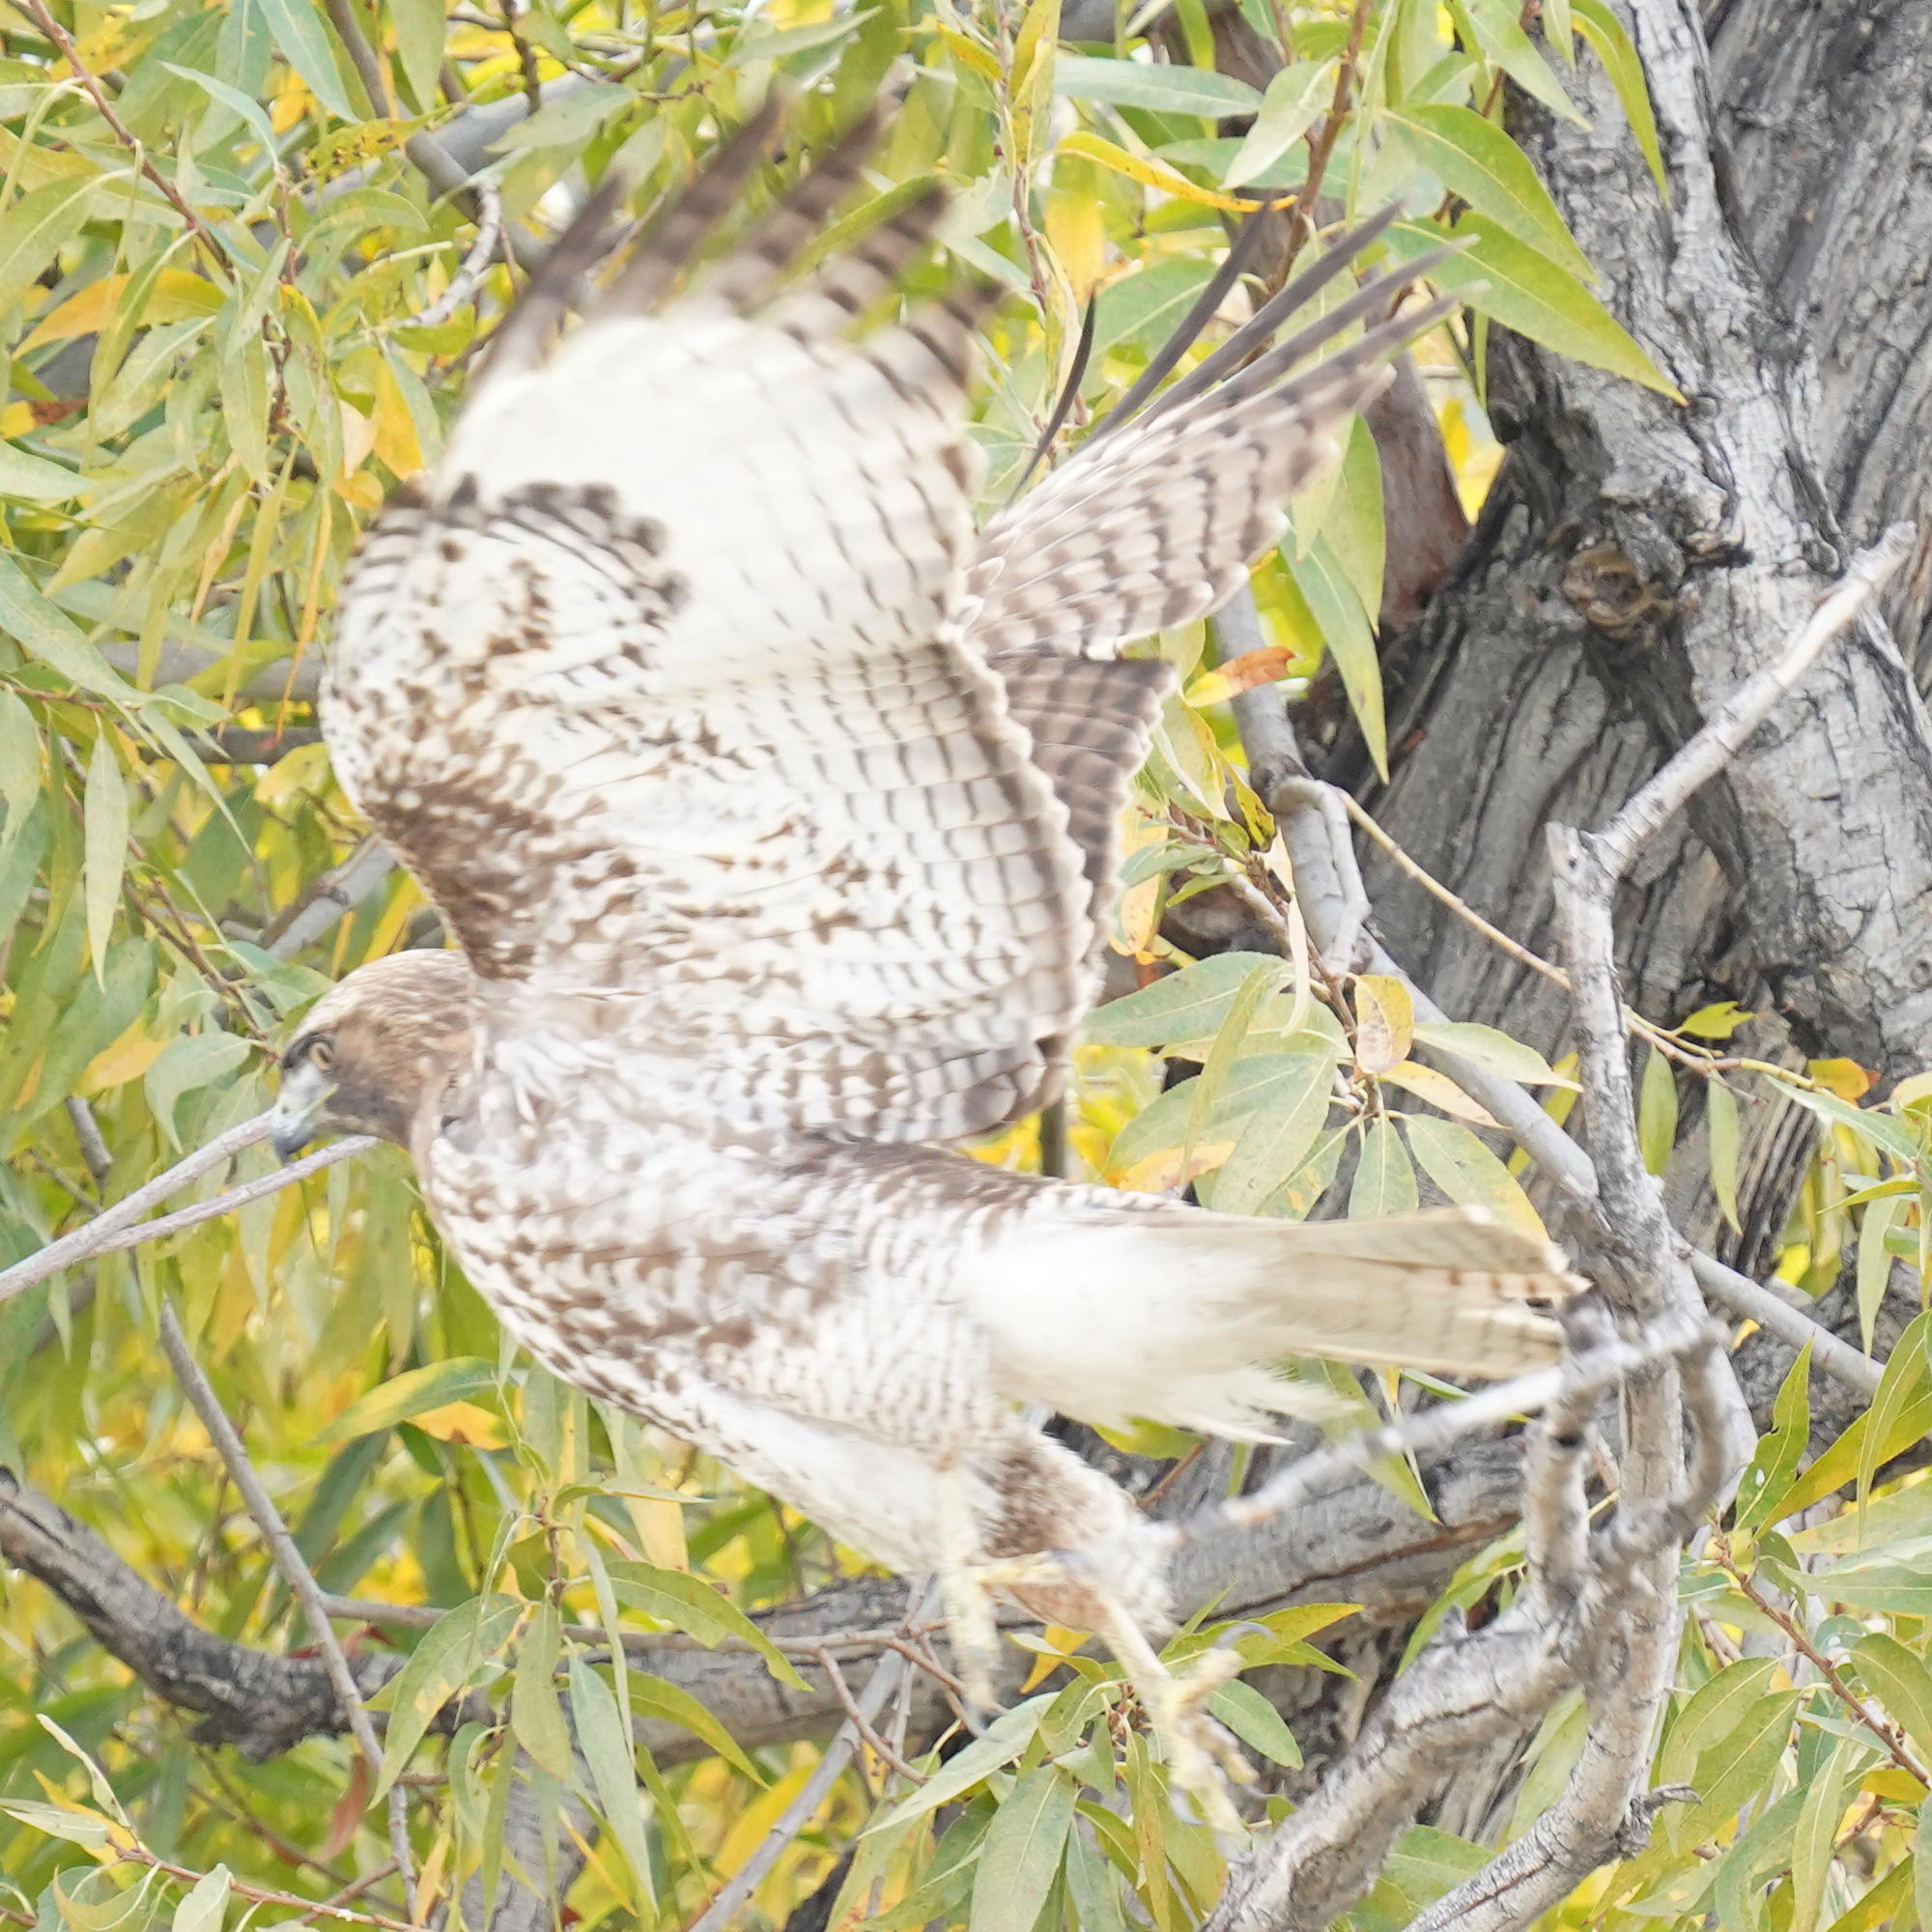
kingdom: Animalia
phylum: Chordata
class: Aves
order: Accipitriformes
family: Accipitridae
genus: Buteo
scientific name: Buteo jamaicensis
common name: Red-tailed hawk
